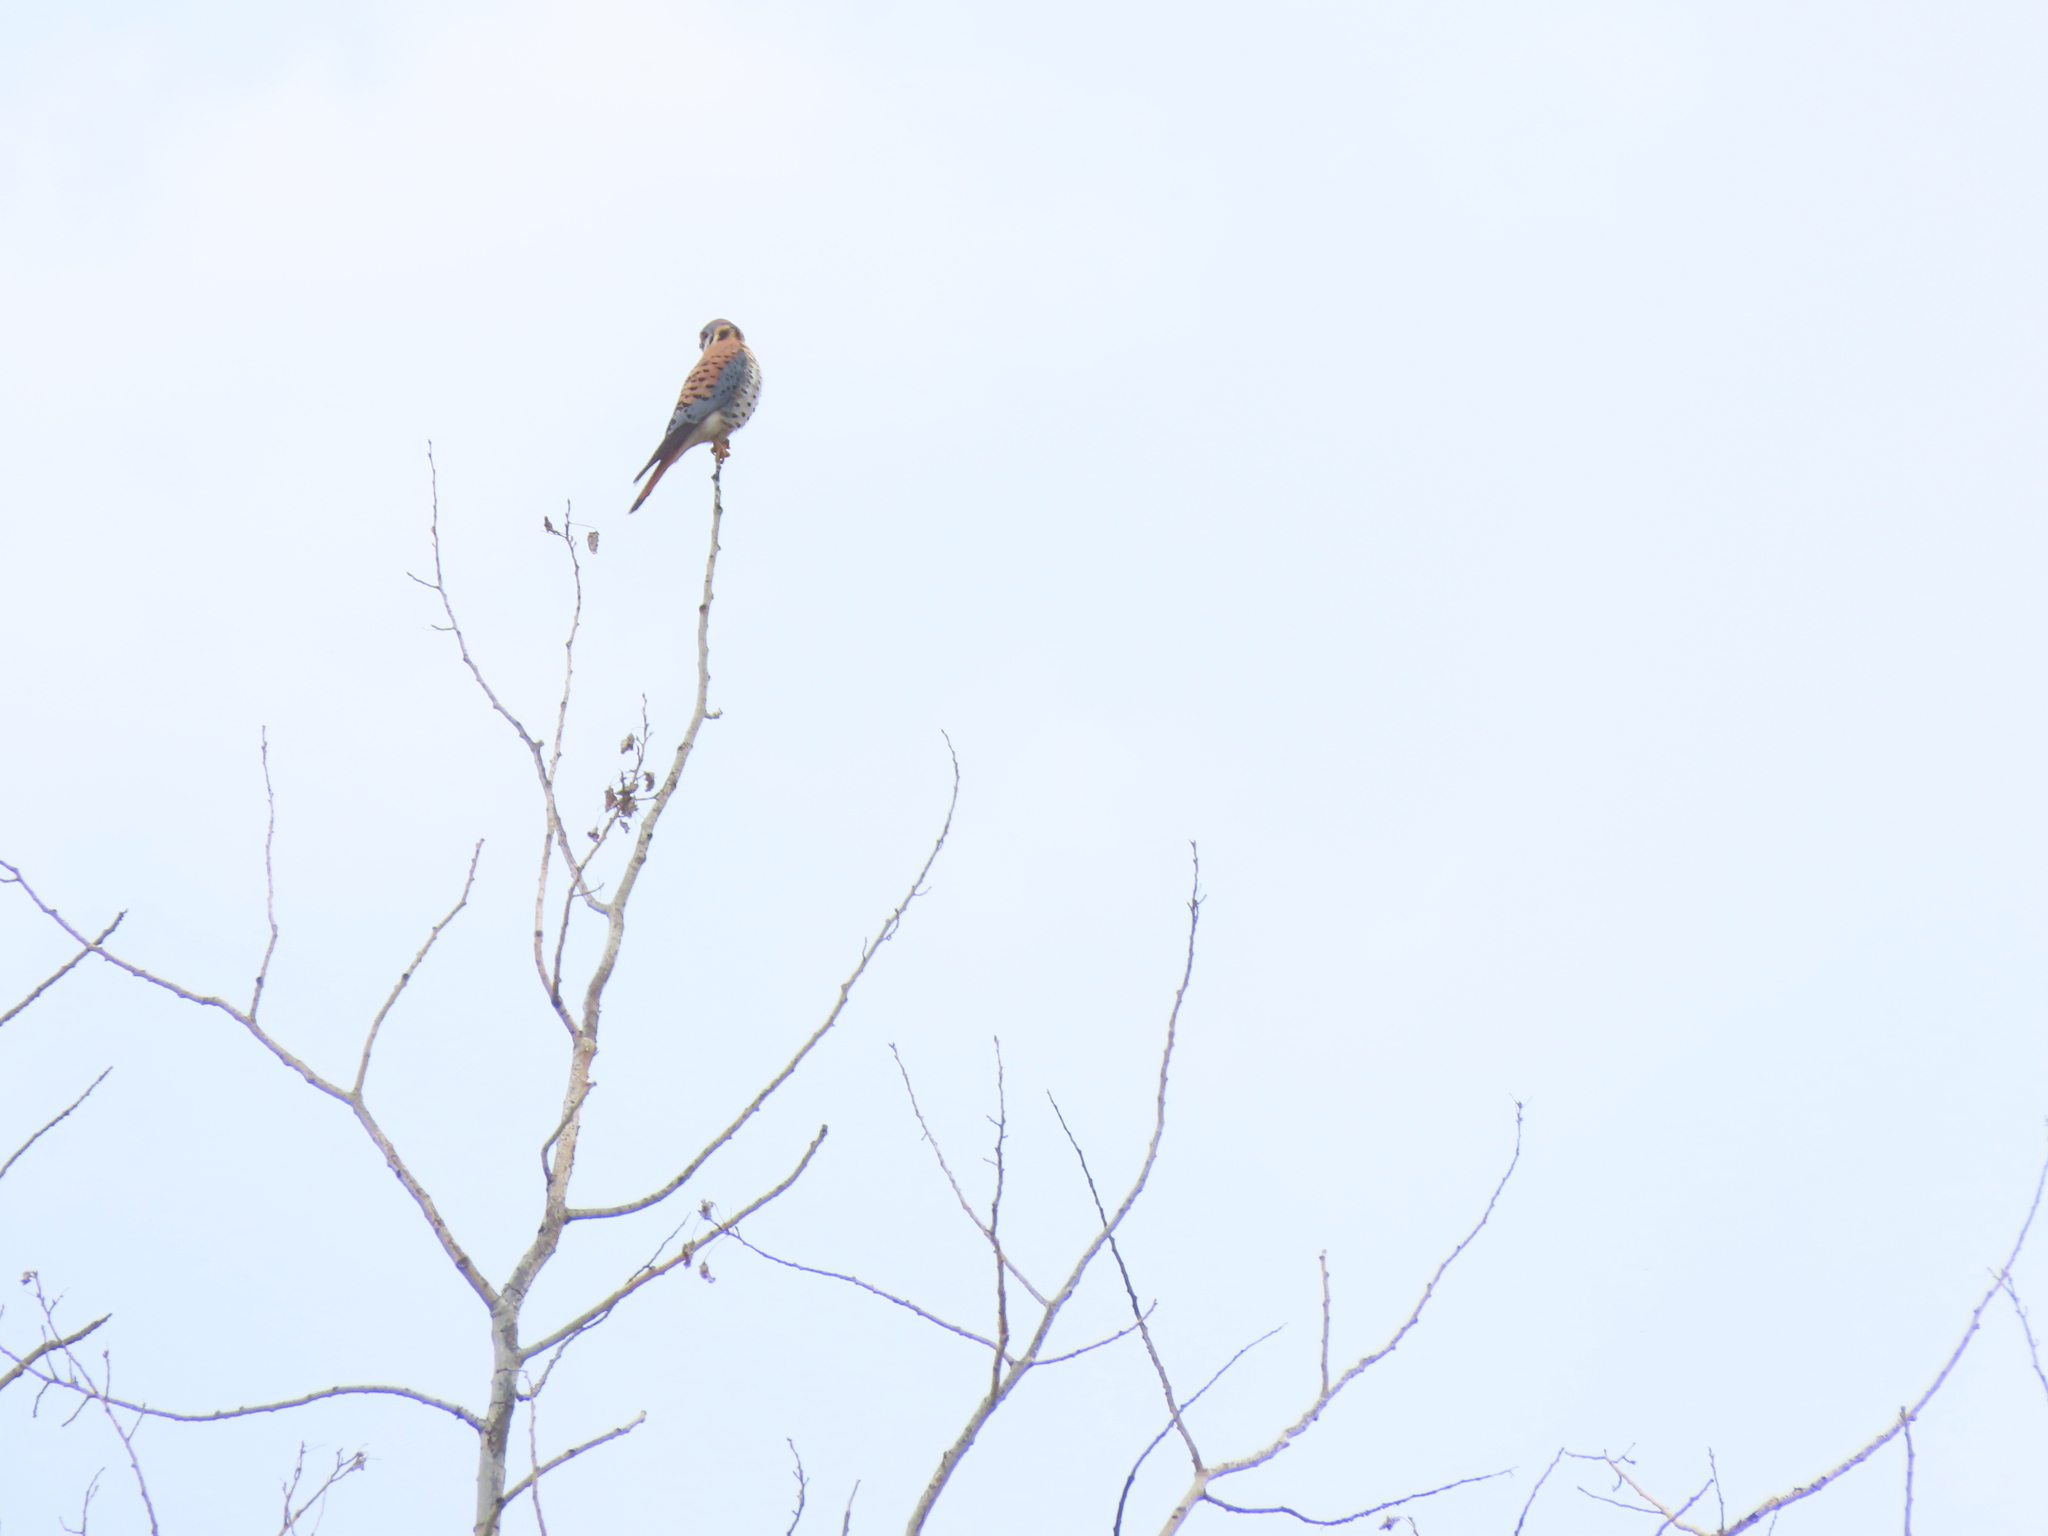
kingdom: Animalia
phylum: Chordata
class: Aves
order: Falconiformes
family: Falconidae
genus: Falco
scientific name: Falco sparverius
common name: American kestrel
